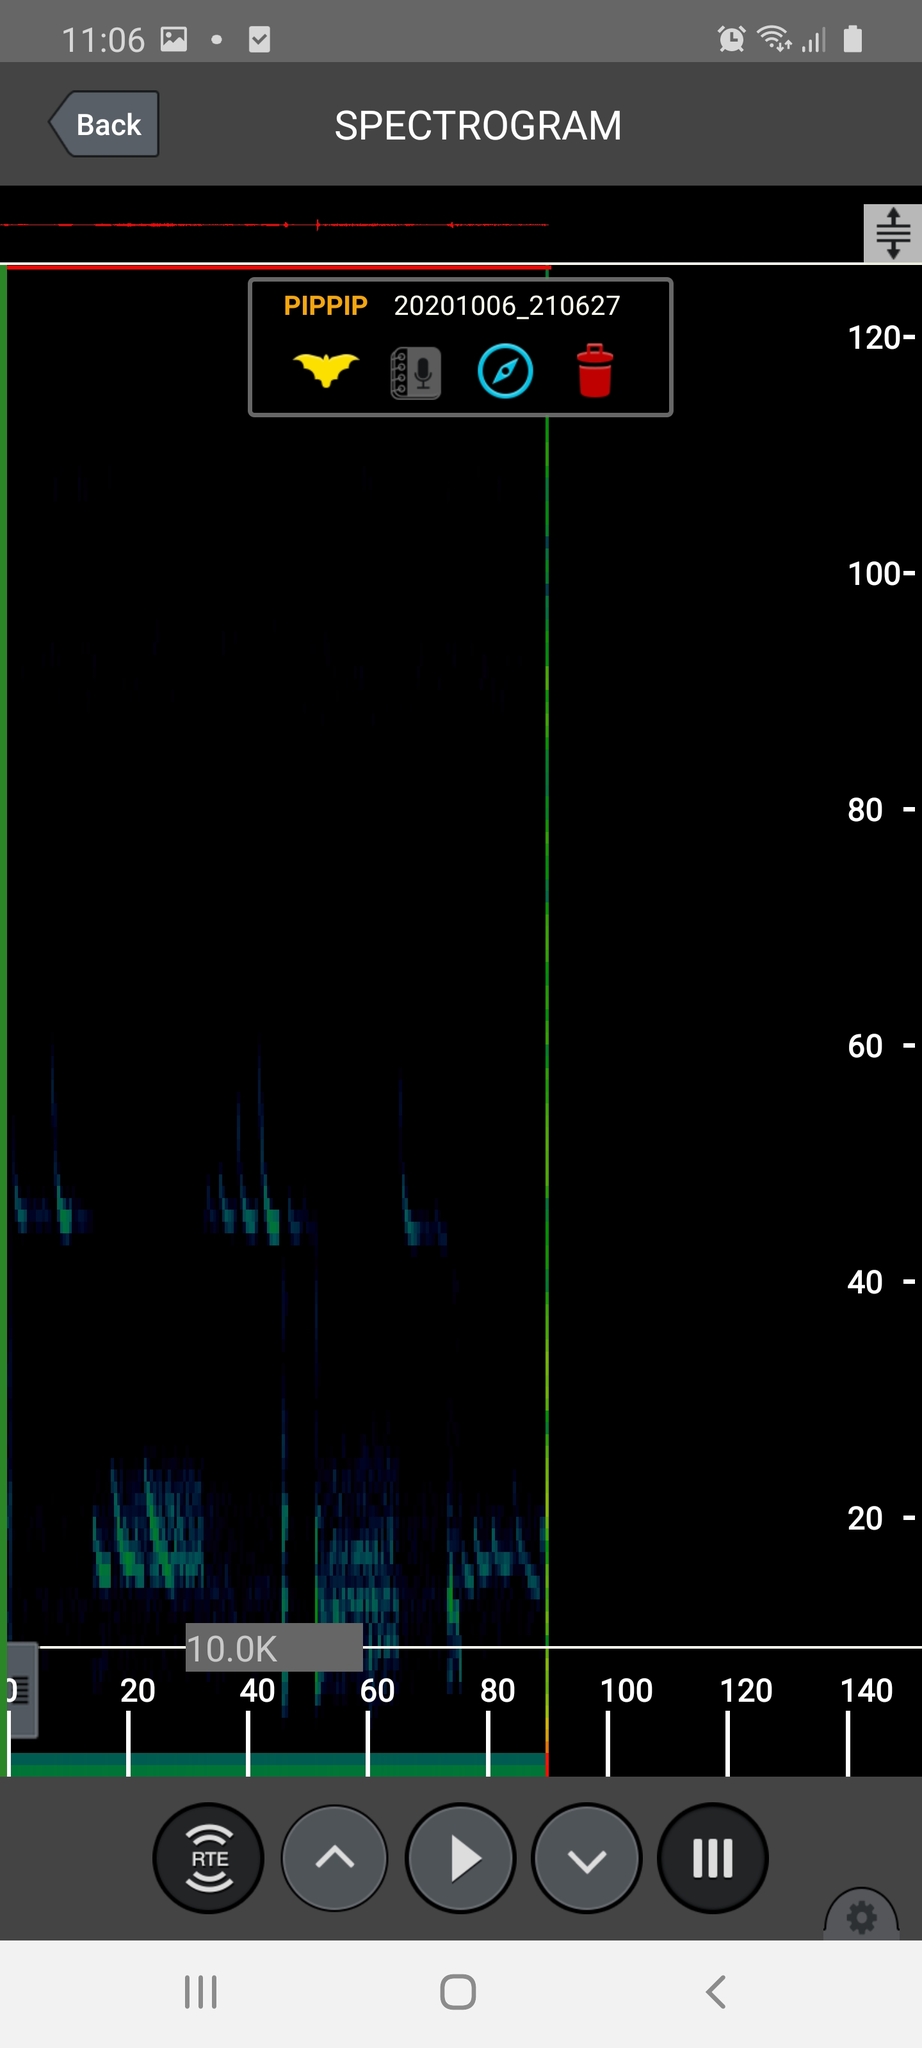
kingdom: Animalia
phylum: Chordata
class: Mammalia
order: Chiroptera
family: Vespertilionidae
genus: Pipistrellus
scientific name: Pipistrellus pipistrellus
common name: Common pipistrelle
